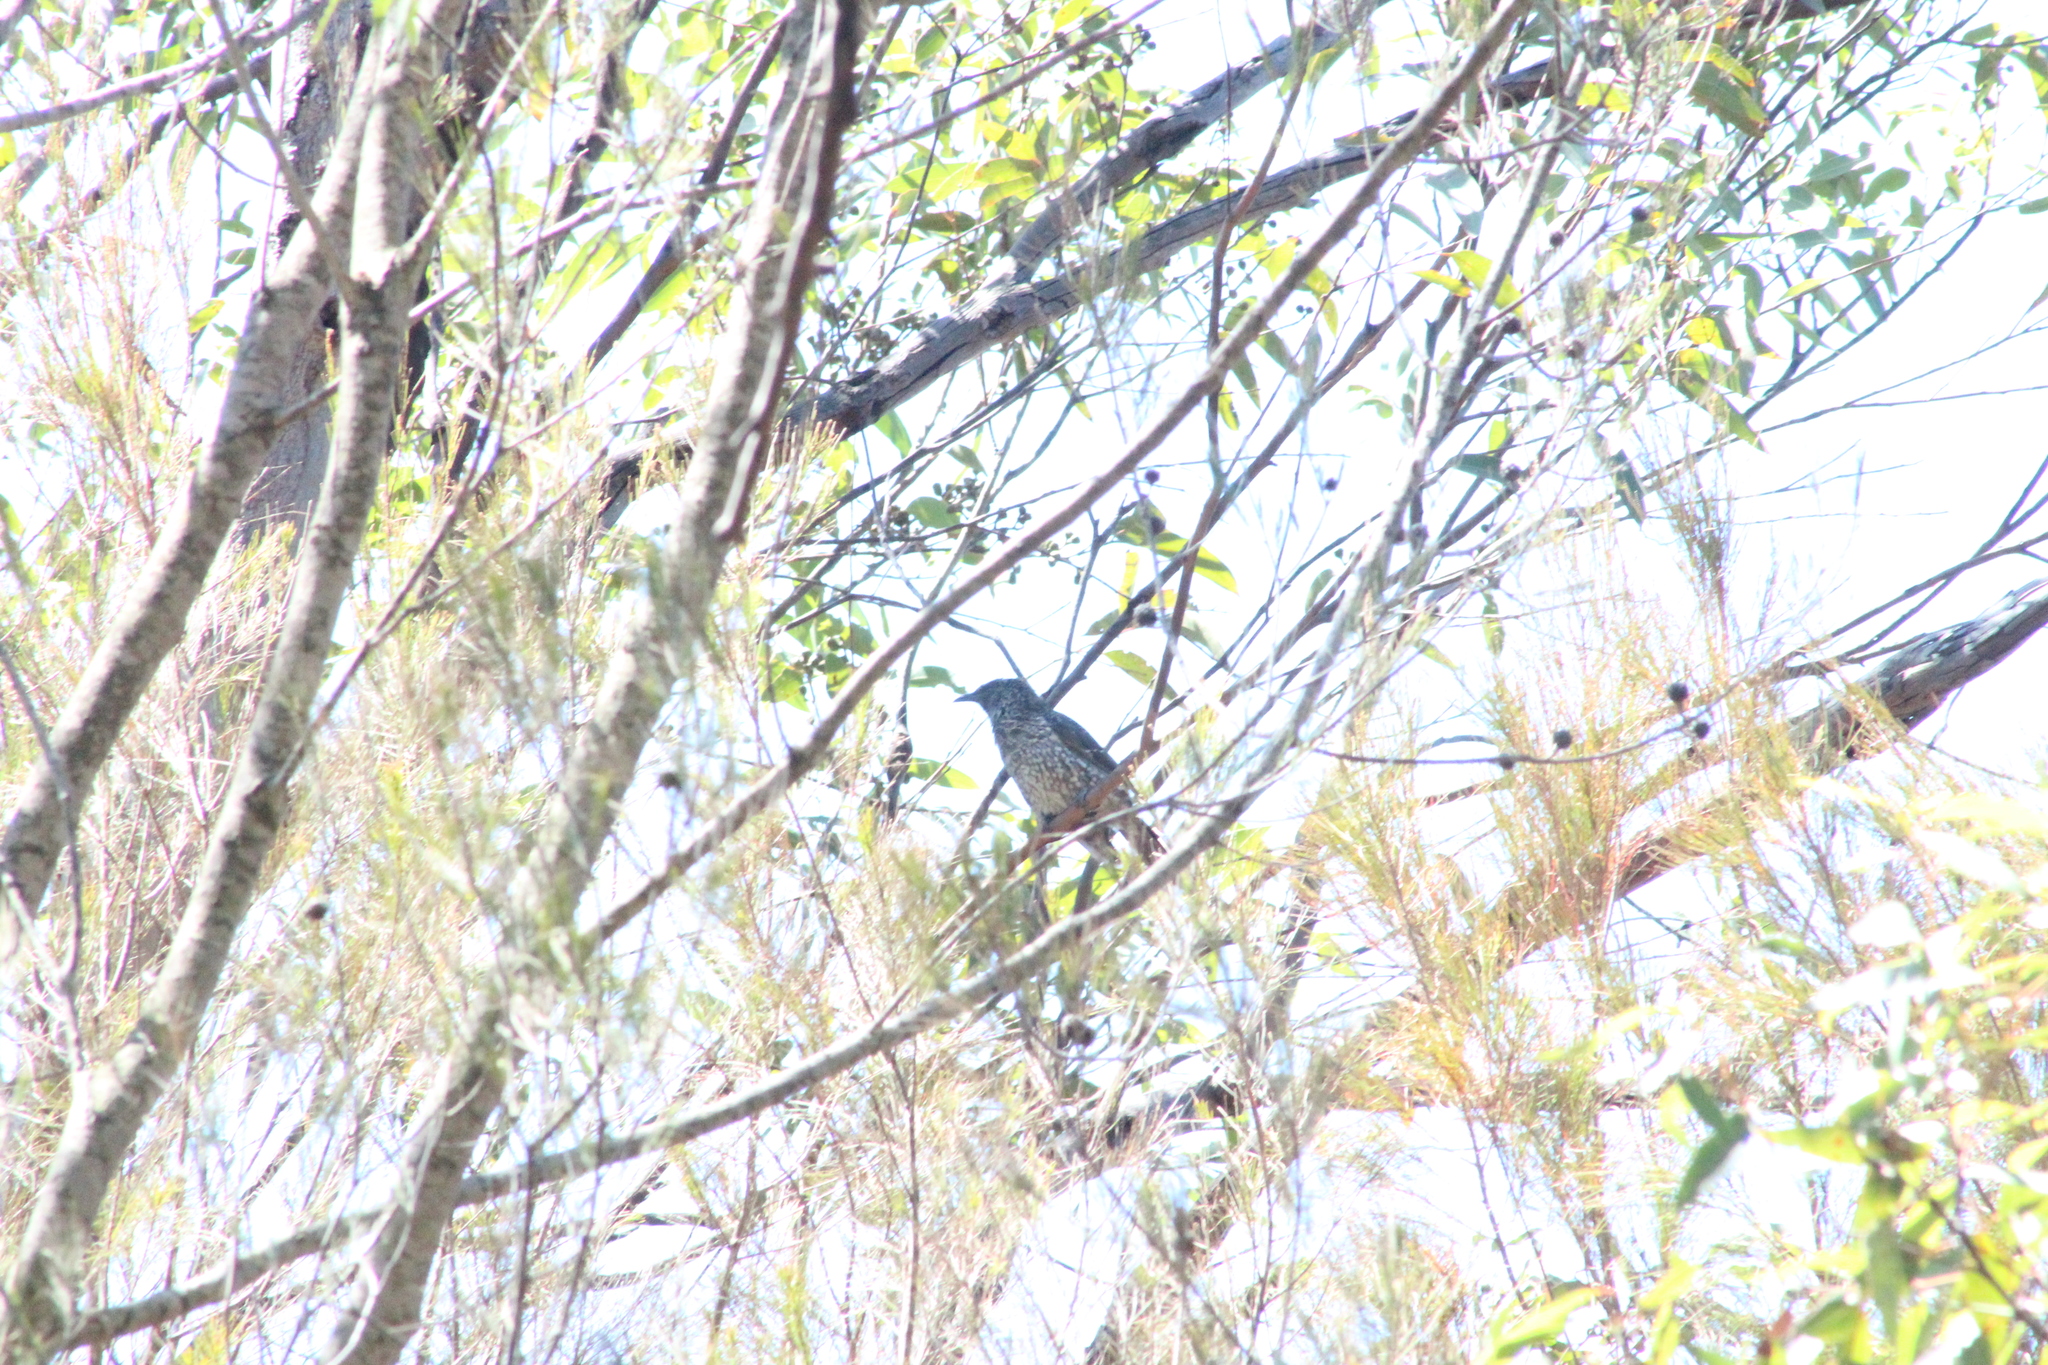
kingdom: Animalia
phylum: Chordata
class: Aves
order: Passeriformes
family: Meliphagidae
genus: Anthochaera
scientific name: Anthochaera chrysoptera
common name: Little wattlebird
